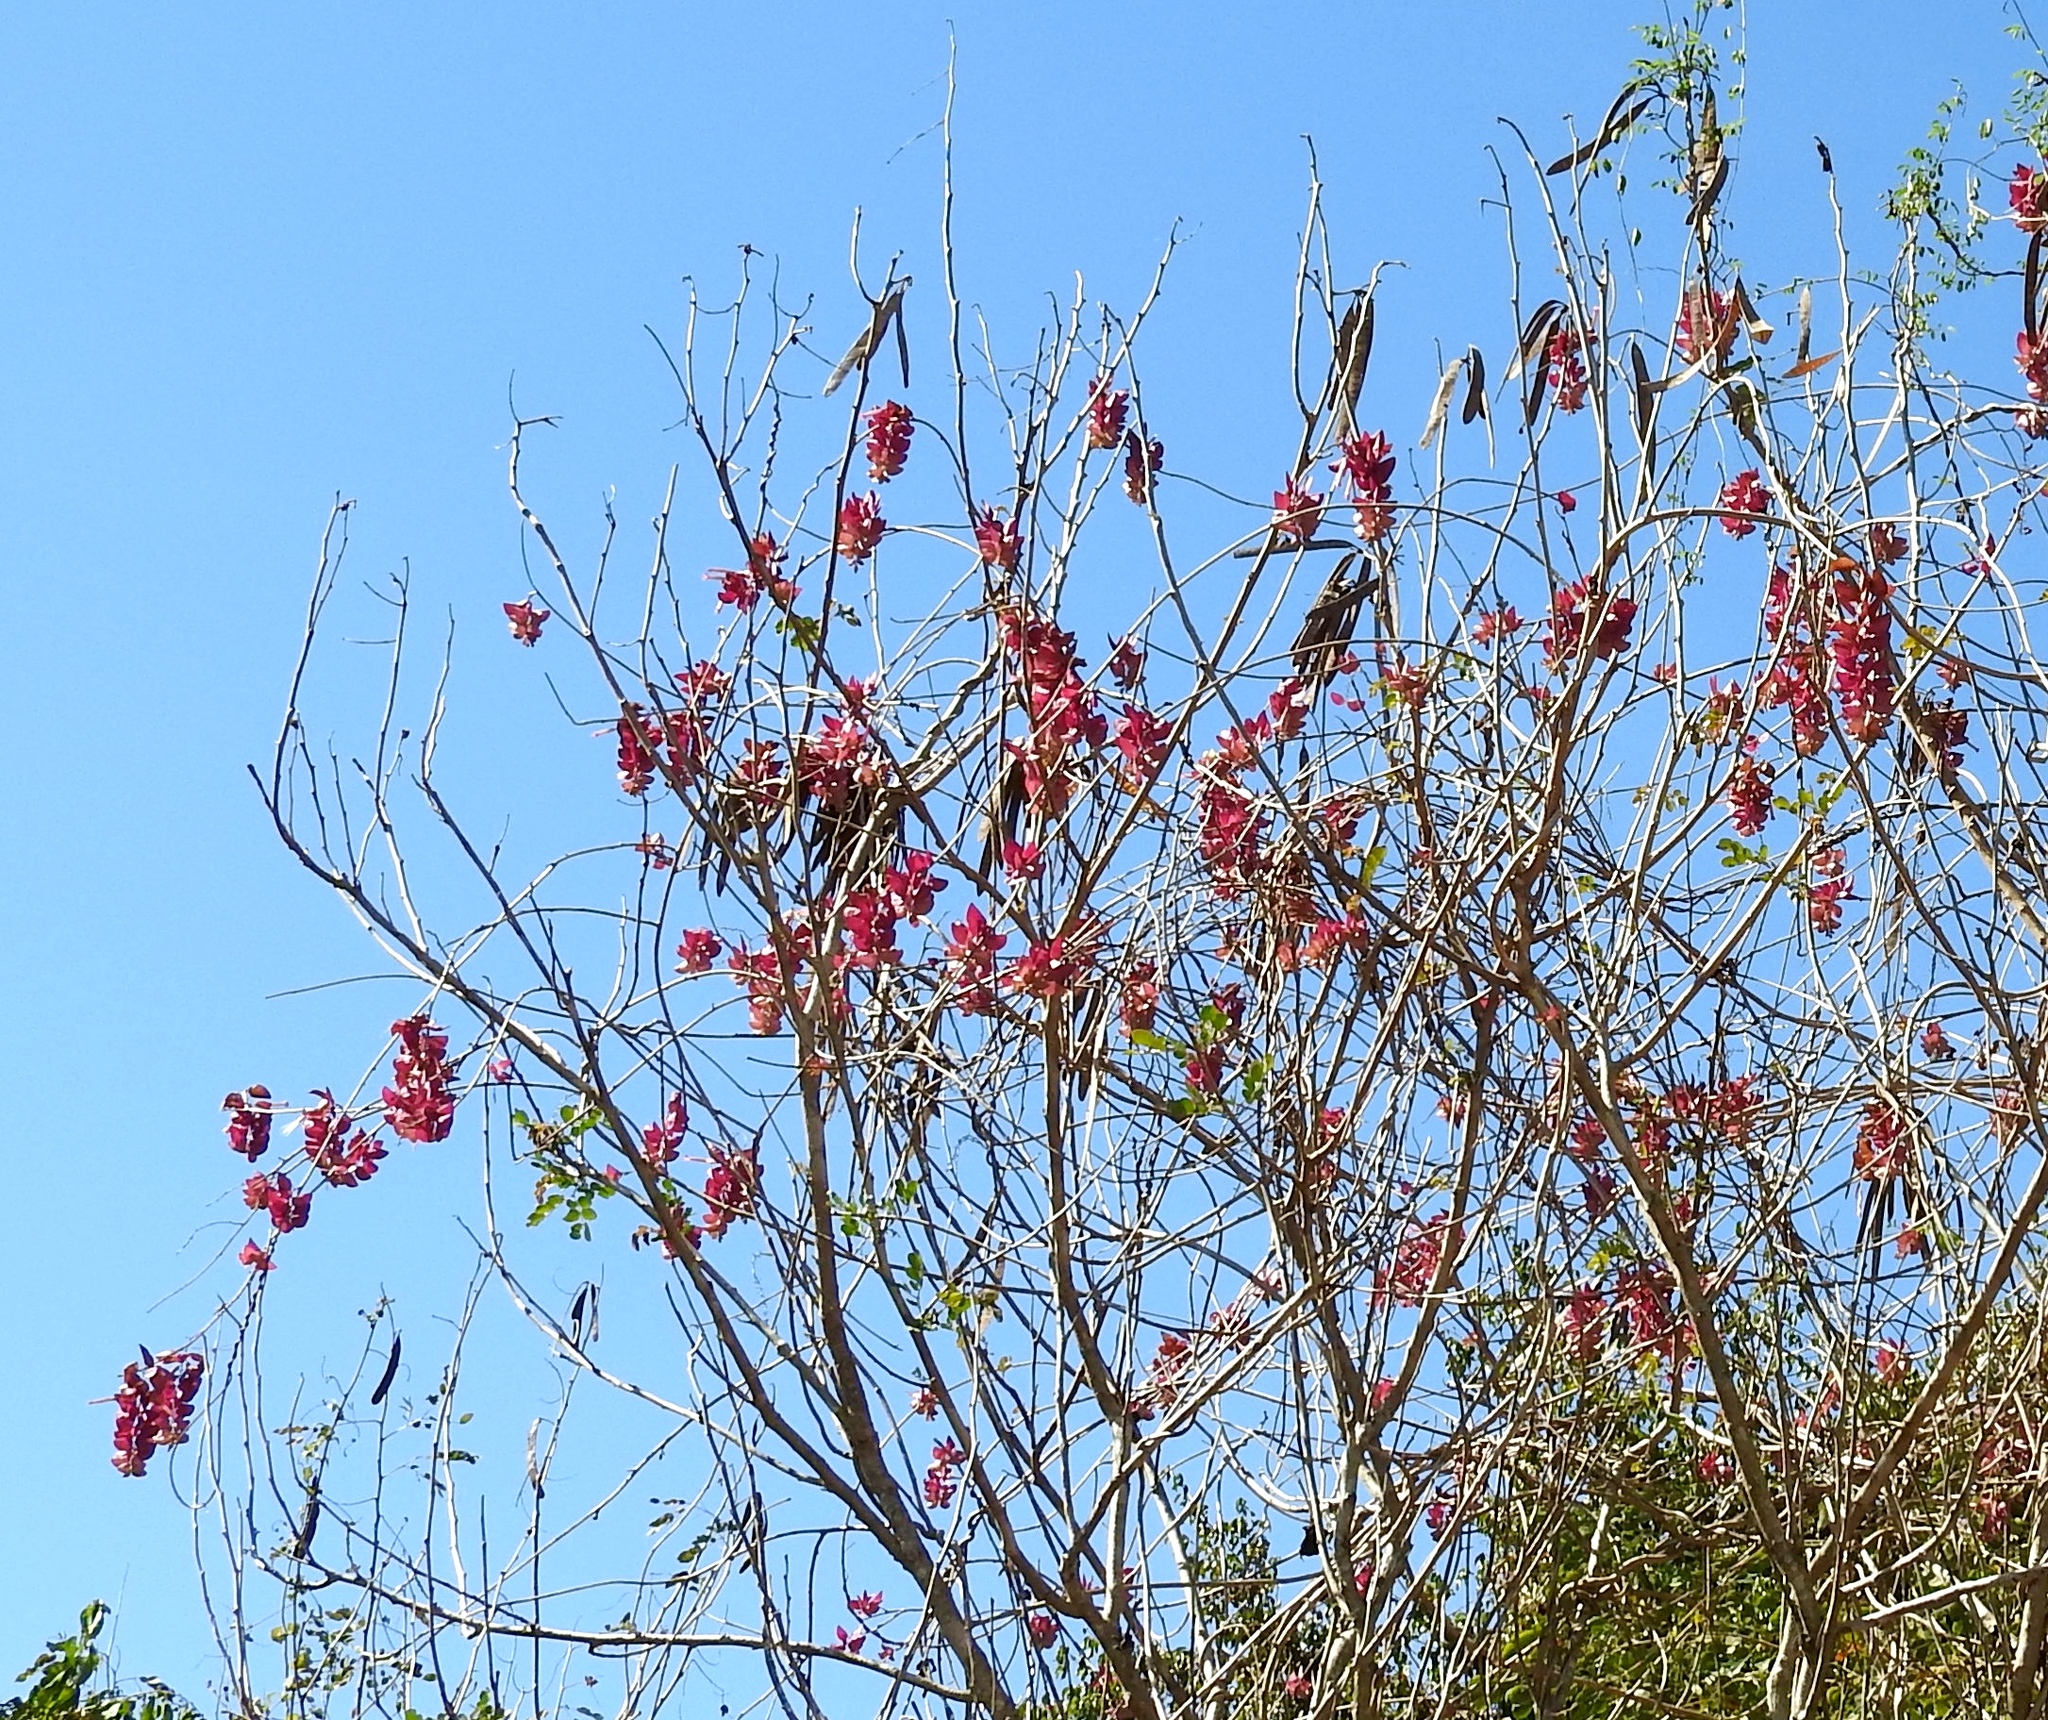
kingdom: Plantae
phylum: Tracheophyta
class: Magnoliopsida
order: Solanales
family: Convolvulaceae
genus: Ipomoea
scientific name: Ipomoea bracteata
